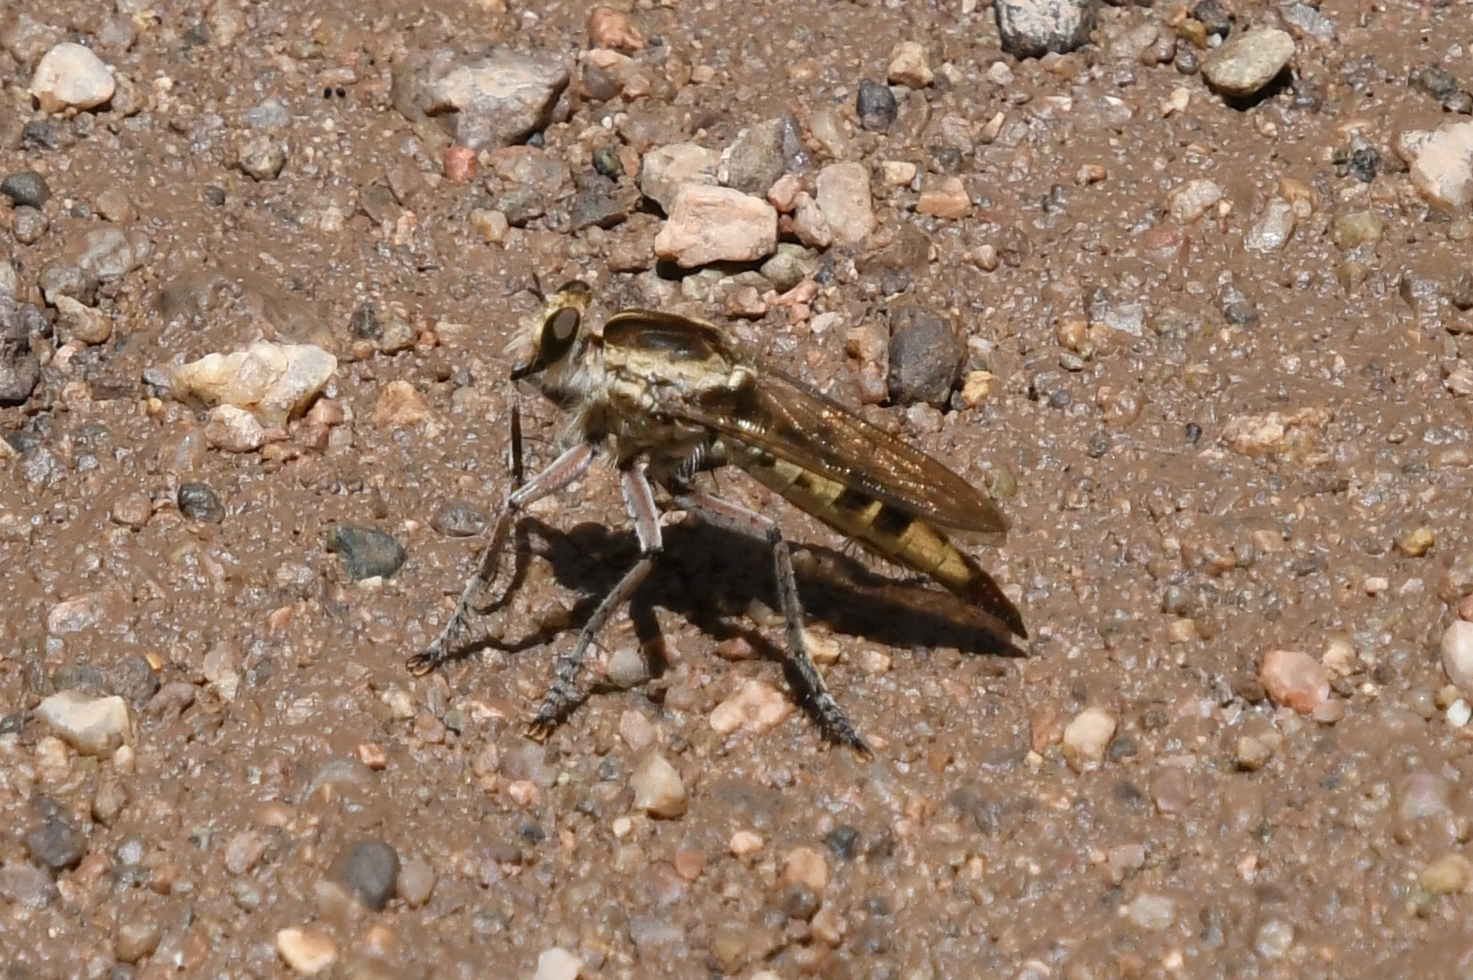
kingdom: Animalia
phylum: Arthropoda
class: Insecta
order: Diptera
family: Asilidae
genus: Triorla
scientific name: Triorla interrupta
